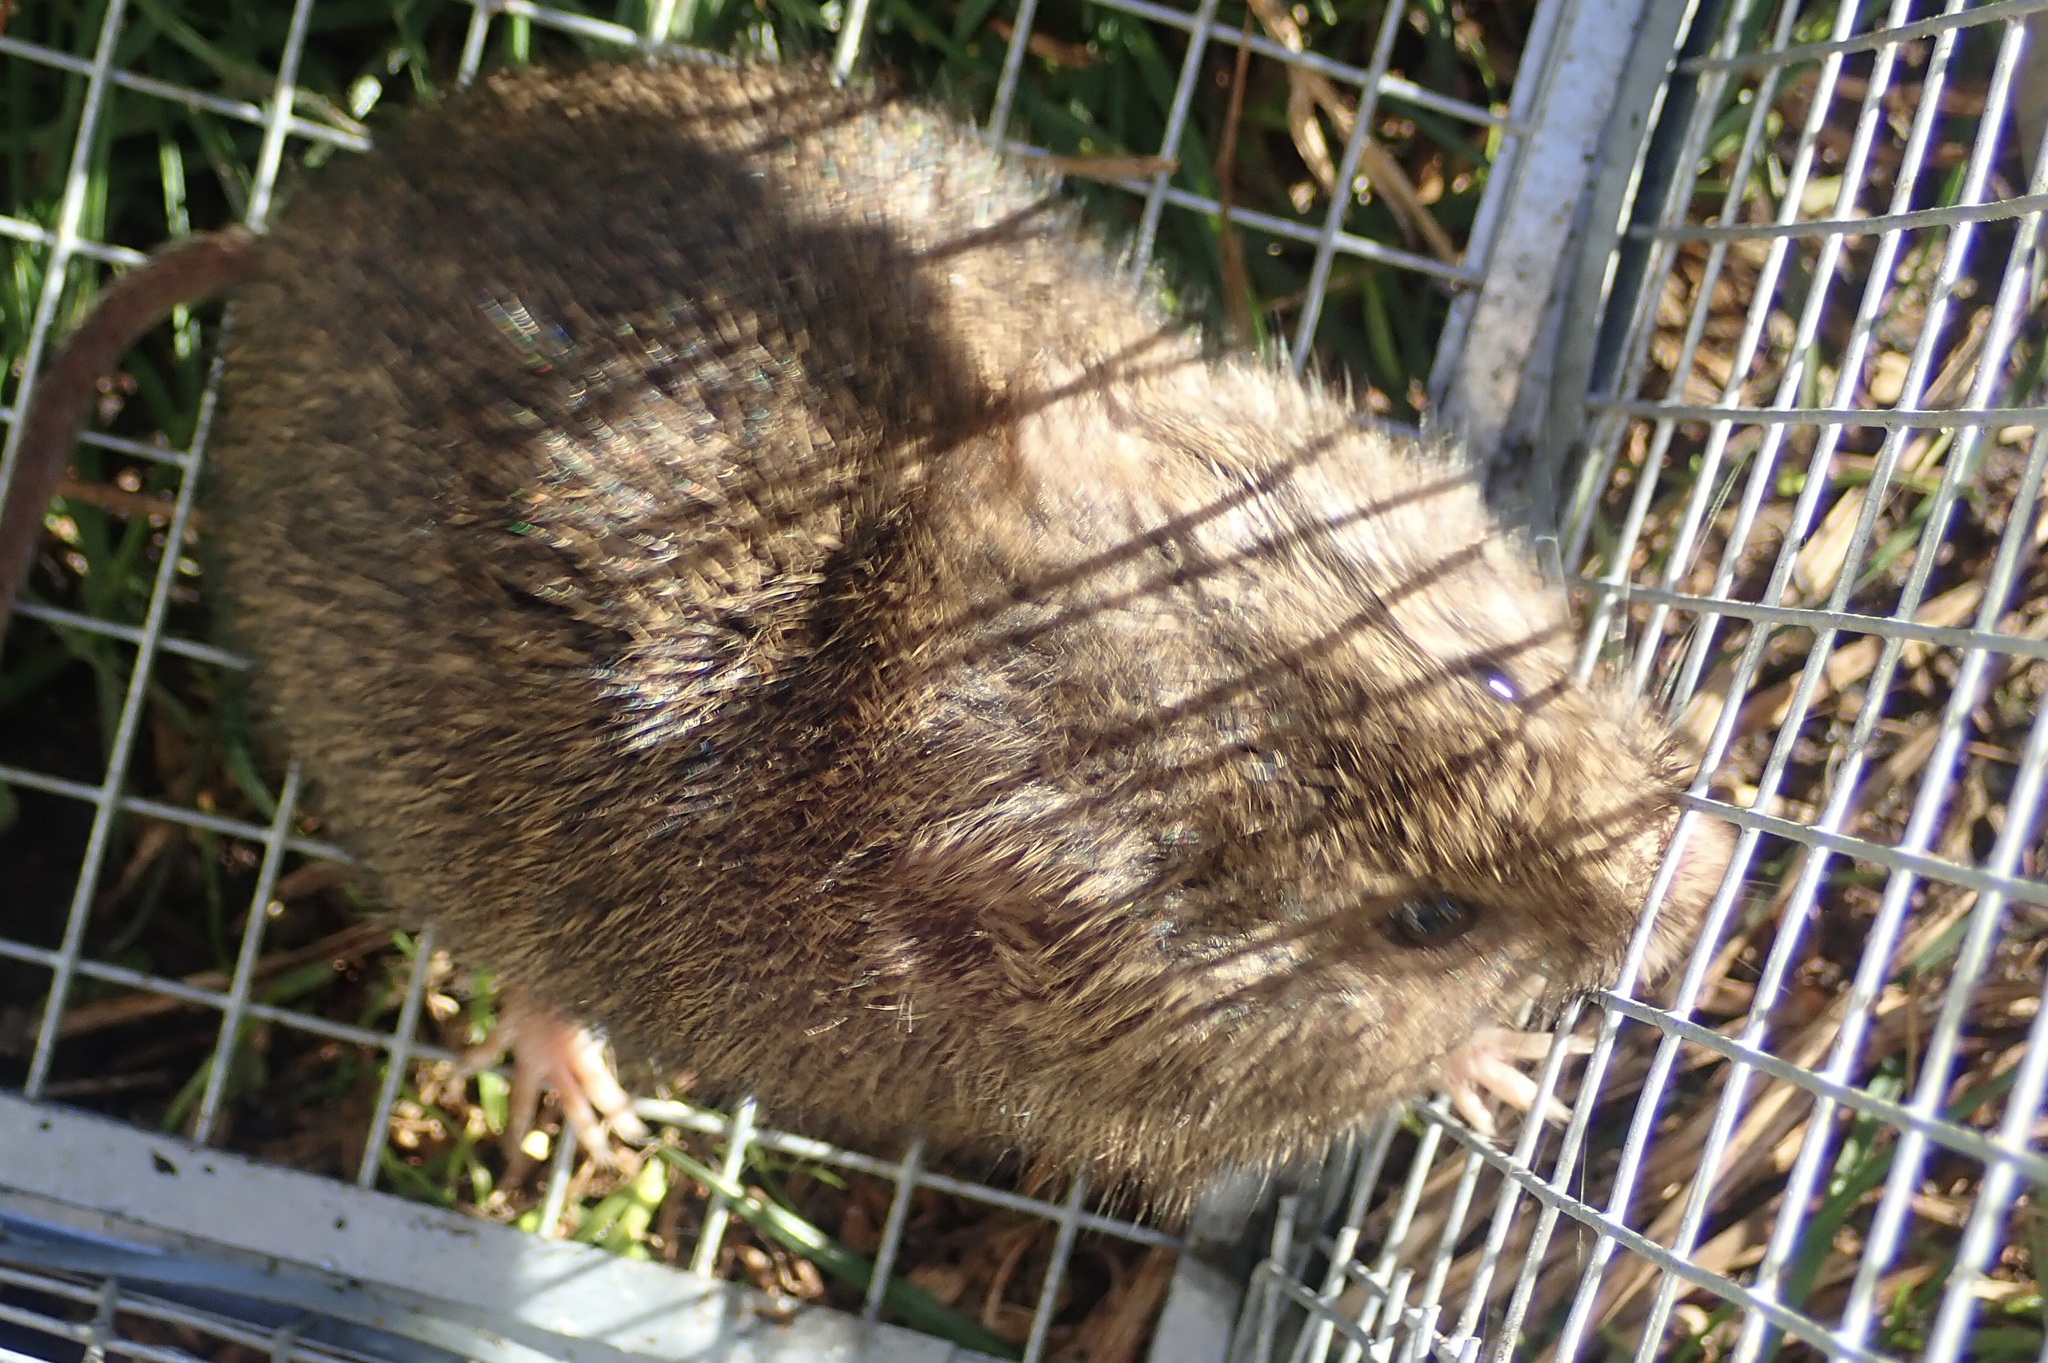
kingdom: Animalia
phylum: Chordata
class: Mammalia
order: Rodentia
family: Cricetidae
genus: Microtus
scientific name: Microtus californicus
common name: California vole
